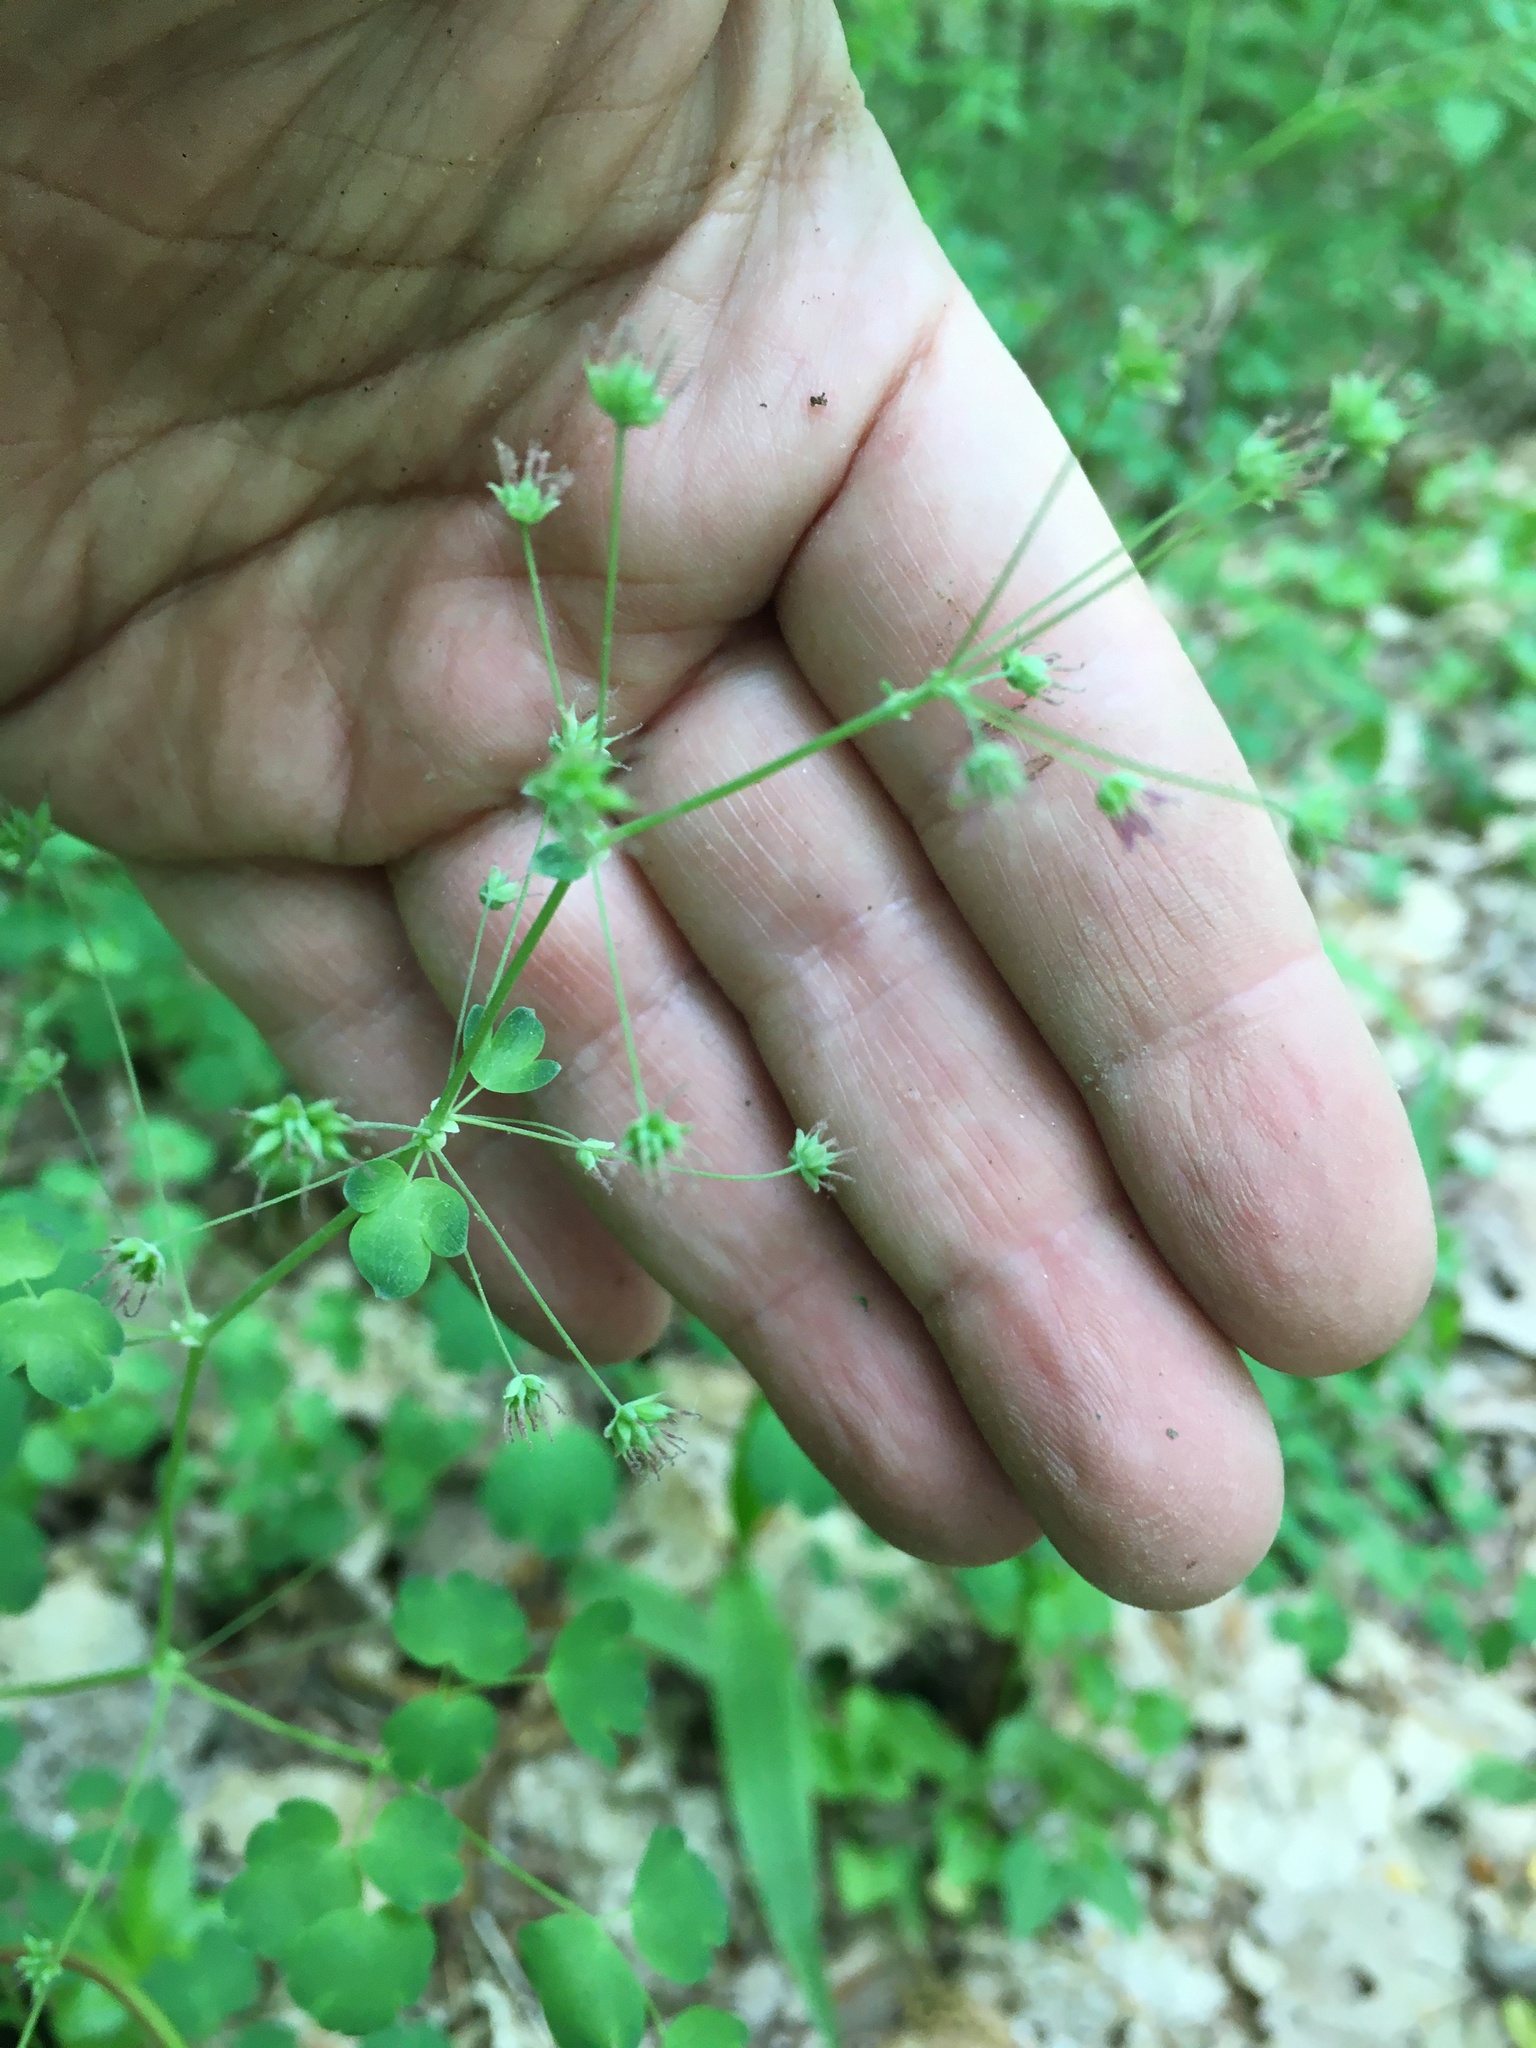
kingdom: Plantae
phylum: Tracheophyta
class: Magnoliopsida
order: Ranunculales
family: Ranunculaceae
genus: Thalictrum
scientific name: Thalictrum dioicum
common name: Early meadow-rue
